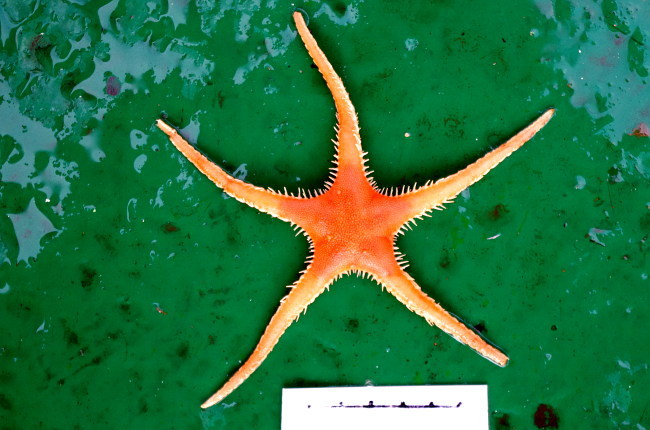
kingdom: Animalia
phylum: Echinodermata
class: Asteroidea
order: Paxillosida
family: Benthopectinidae
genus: Pontaster
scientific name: Pontaster tenuispinus
